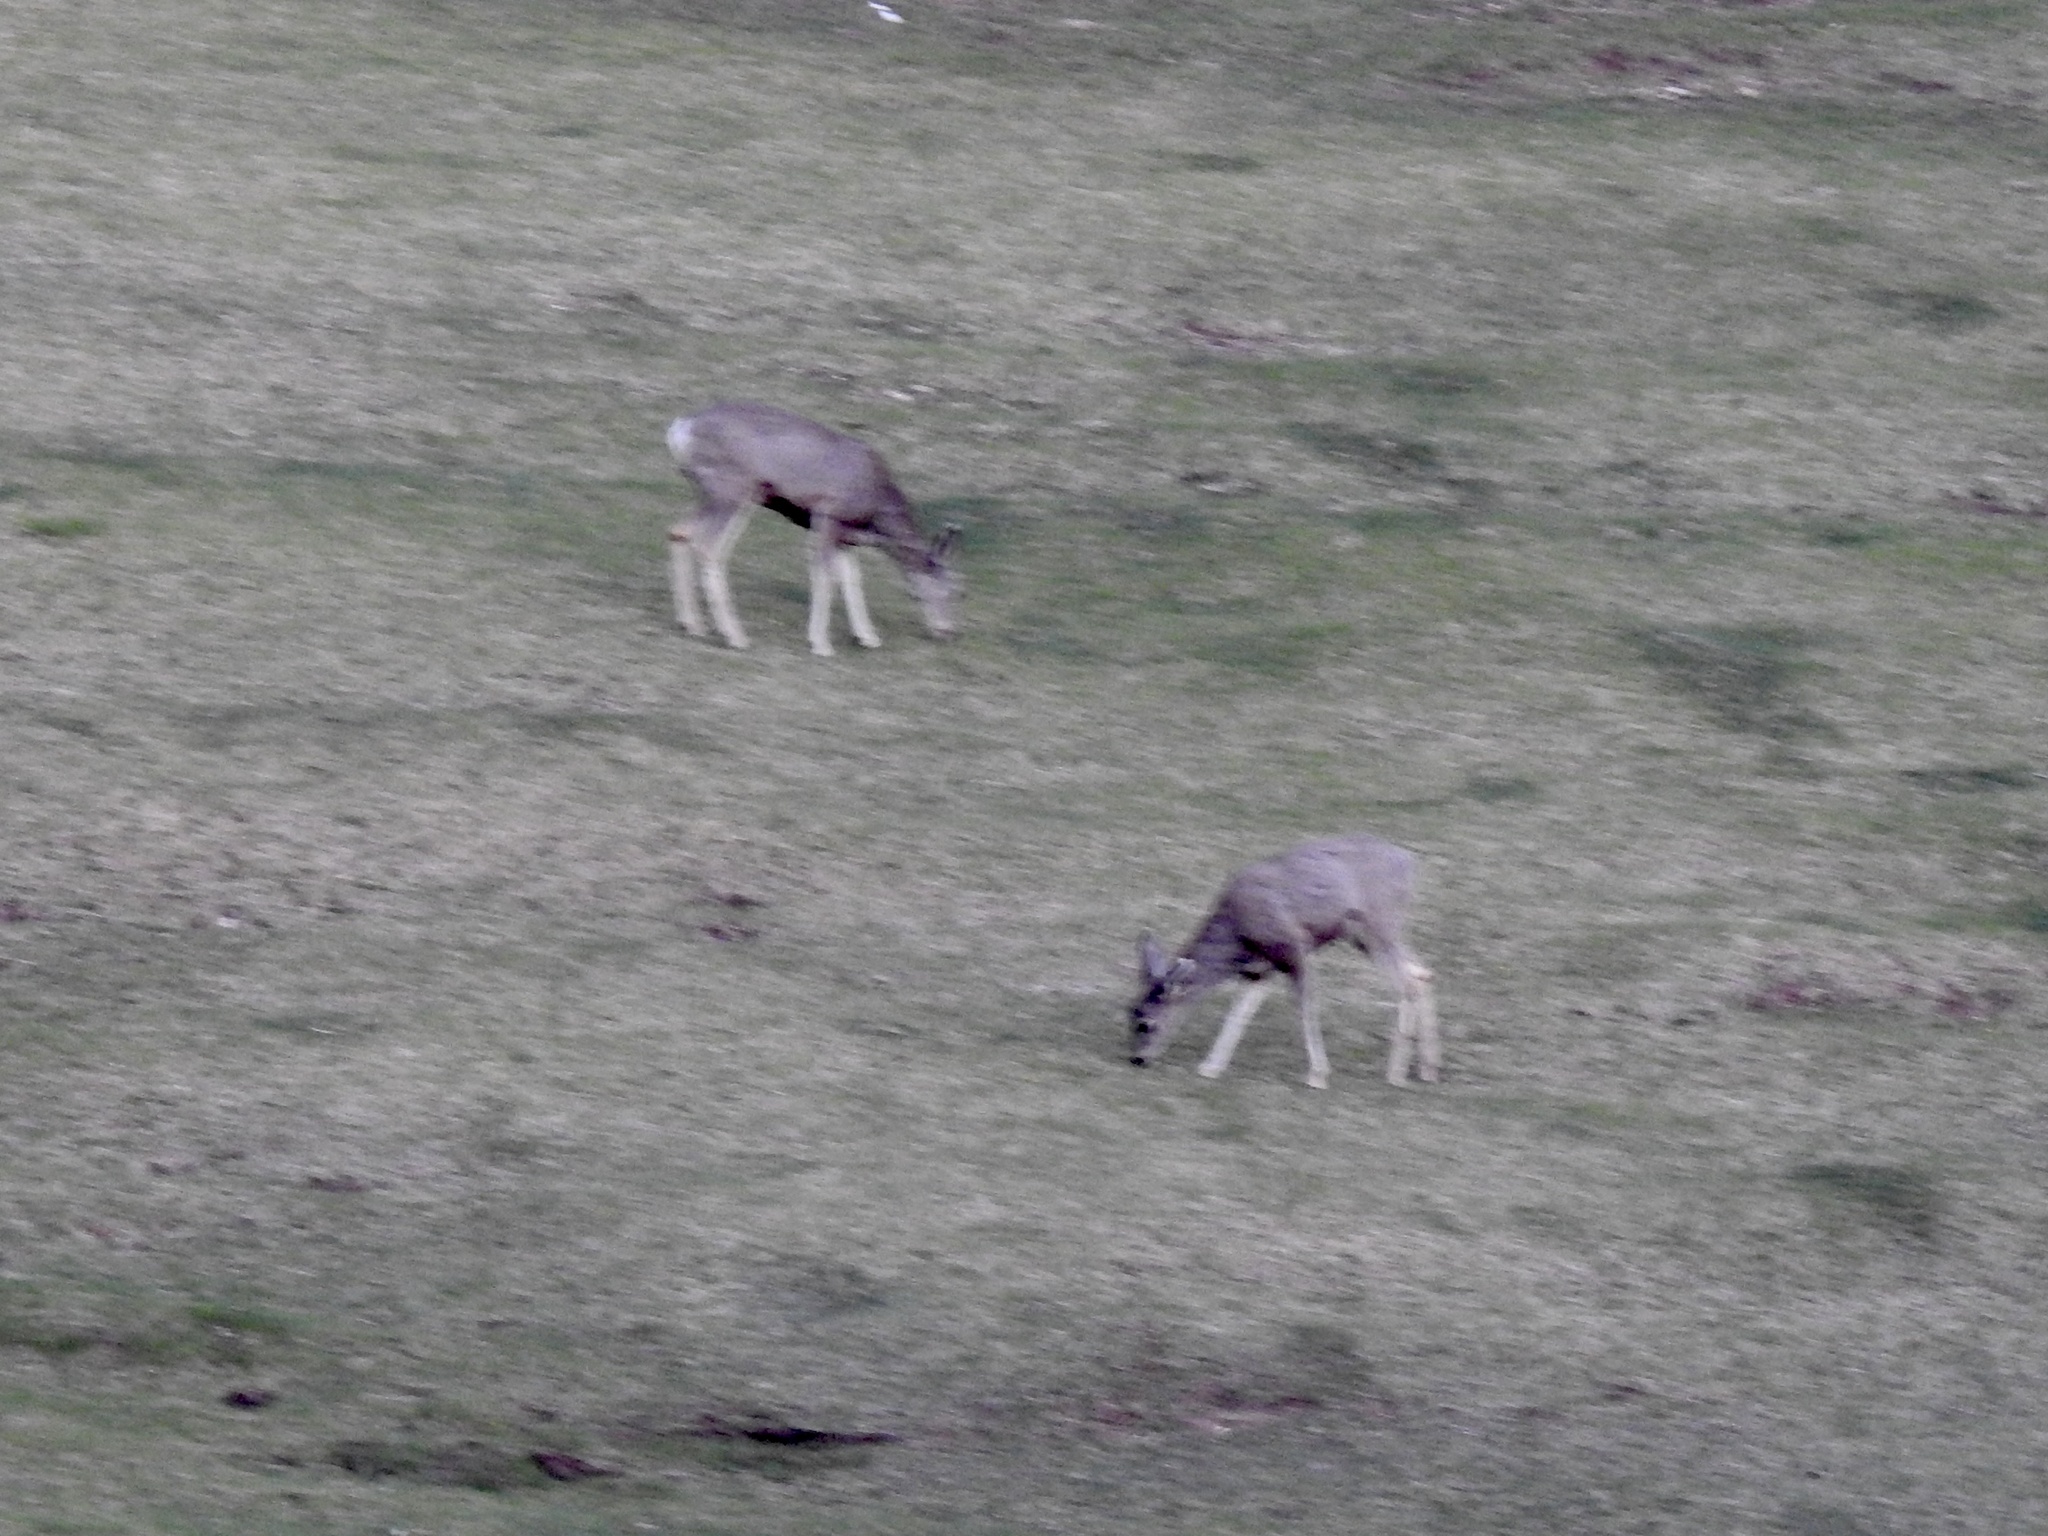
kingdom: Animalia
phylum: Chordata
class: Mammalia
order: Artiodactyla
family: Cervidae
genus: Odocoileus
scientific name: Odocoileus hemionus
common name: Mule deer
